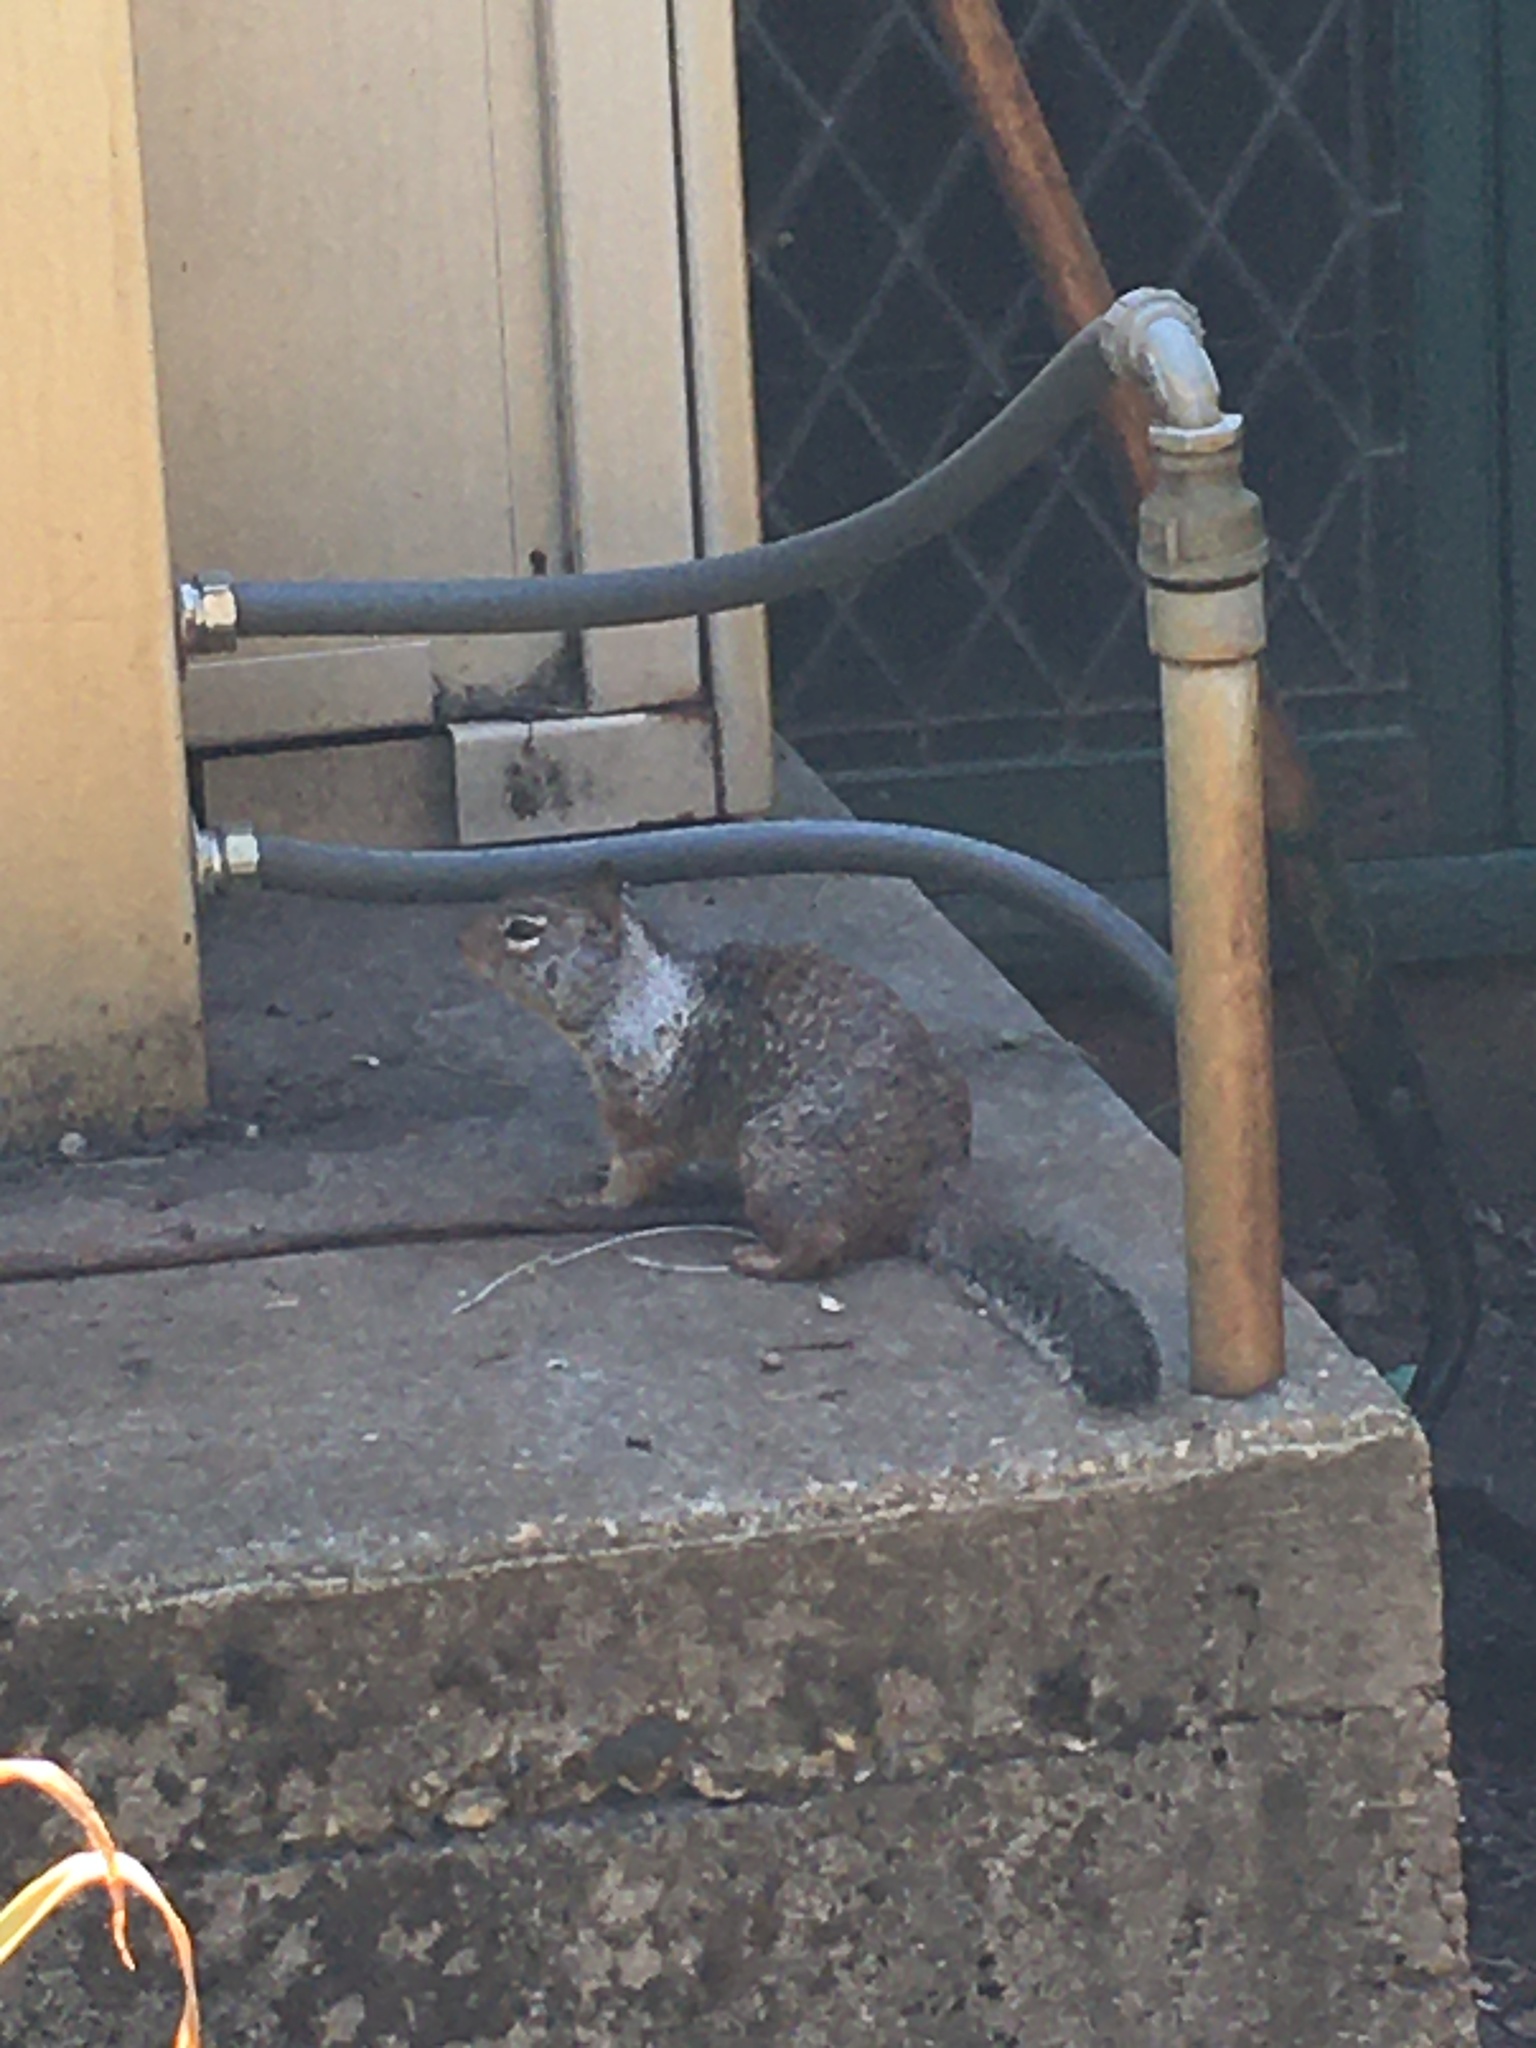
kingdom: Animalia
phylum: Chordata
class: Mammalia
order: Rodentia
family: Sciuridae
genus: Otospermophilus
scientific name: Otospermophilus beecheyi
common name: California ground squirrel
